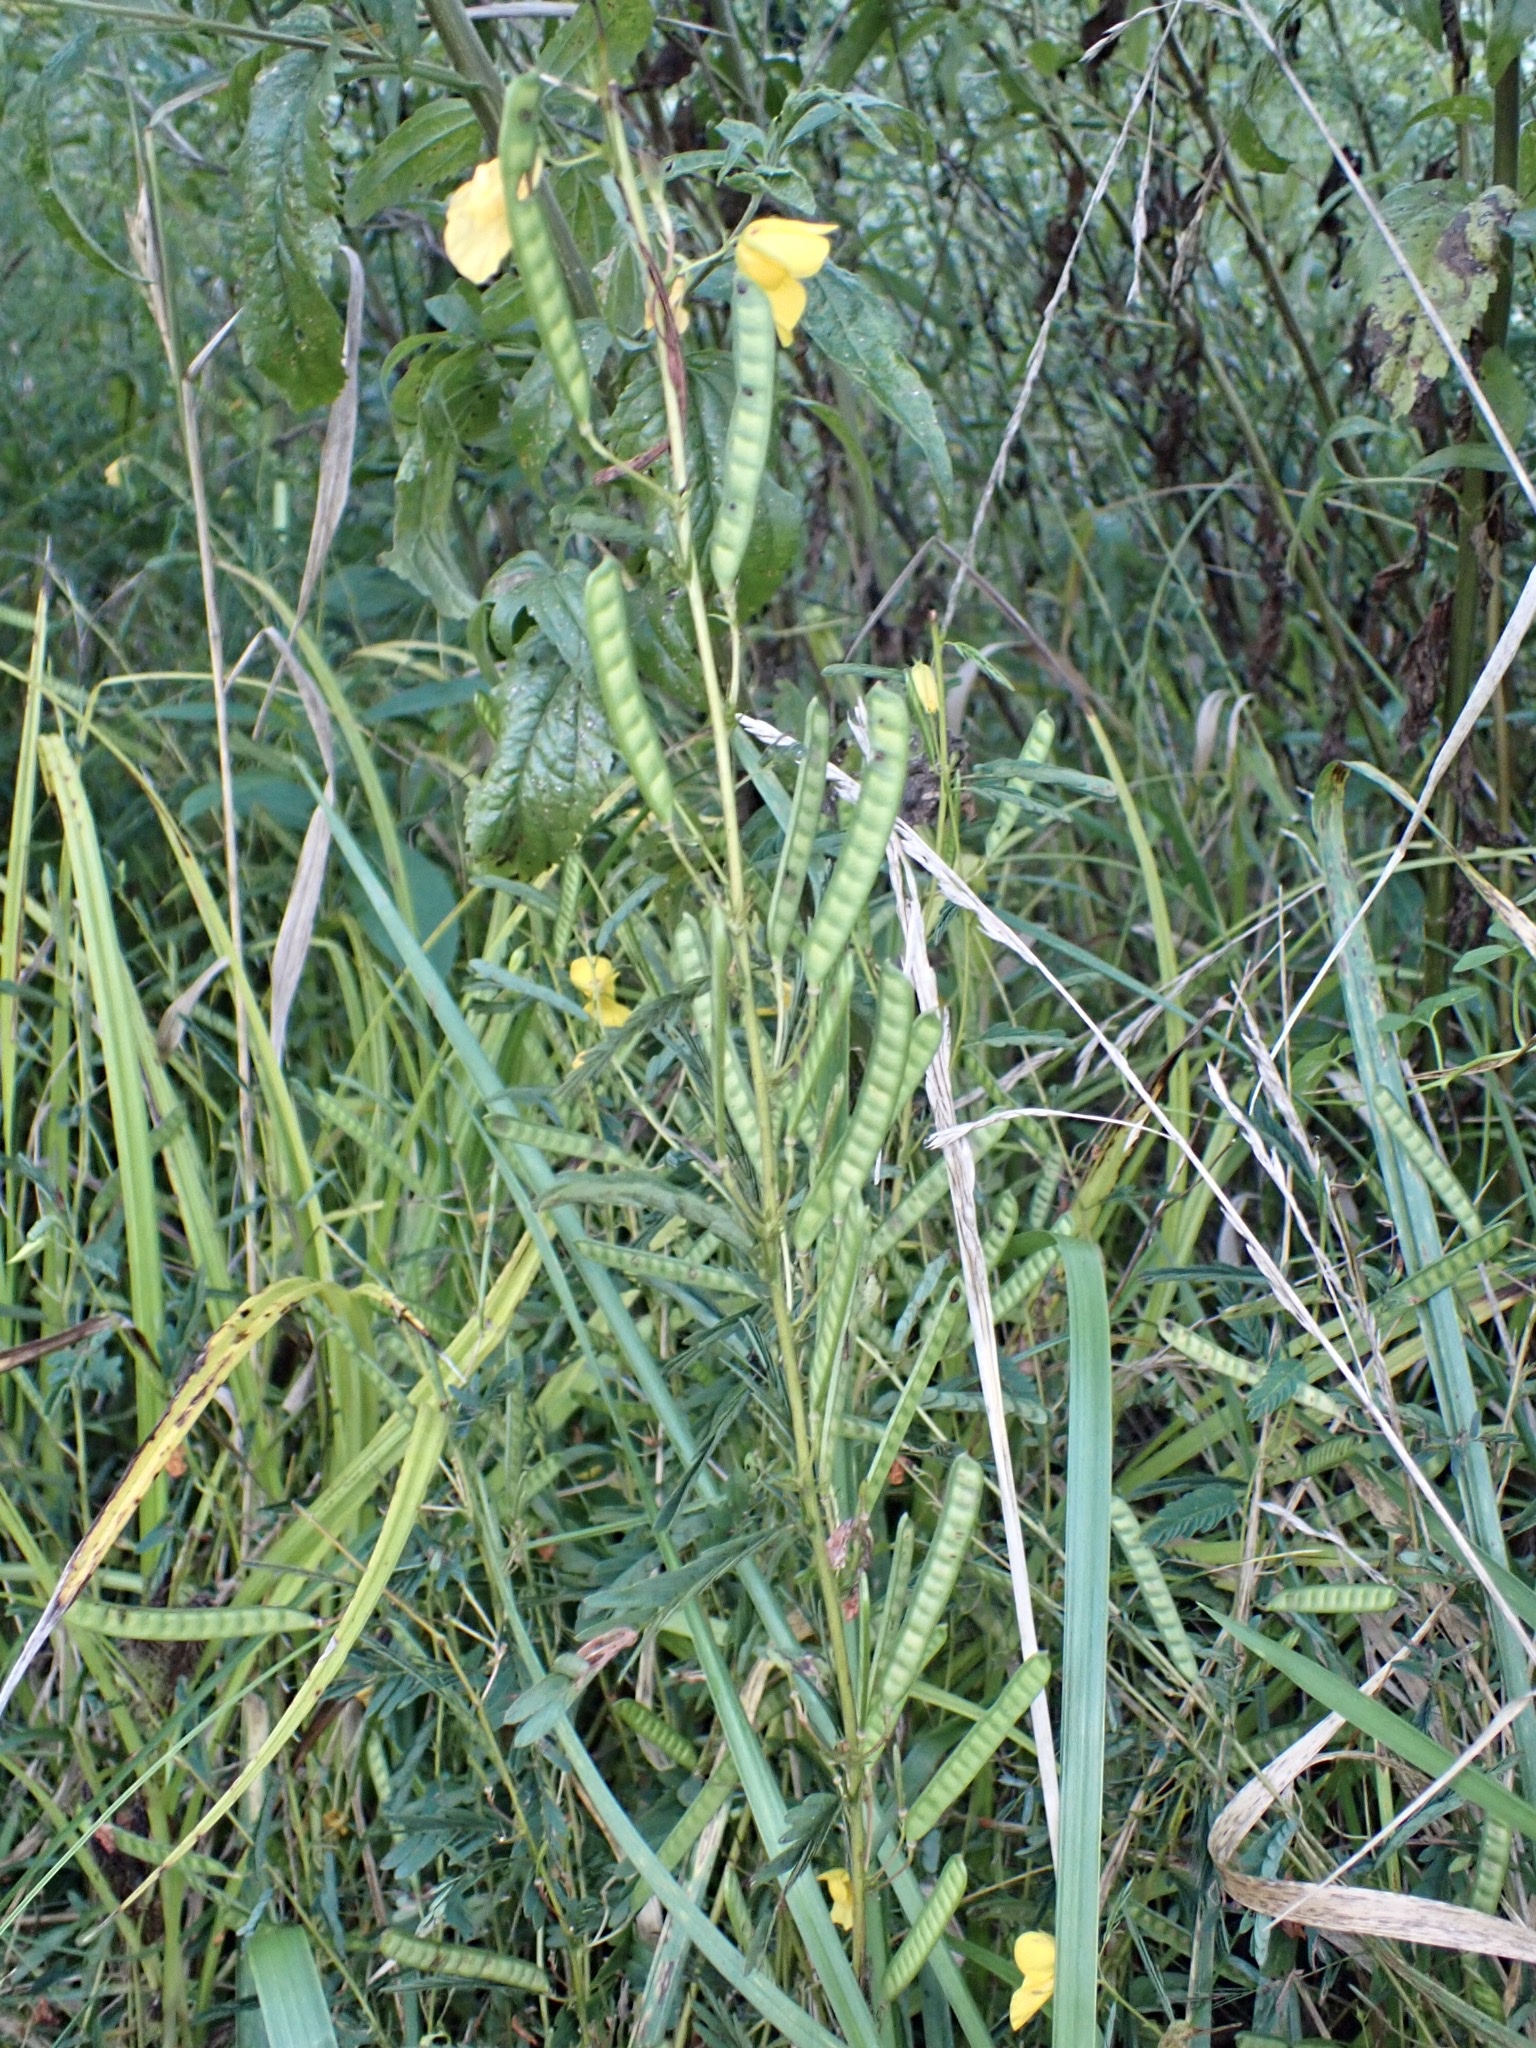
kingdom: Plantae
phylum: Tracheophyta
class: Magnoliopsida
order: Fabales
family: Fabaceae
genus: Chamaecrista
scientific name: Chamaecrista fasciculata
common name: Golden cassia
